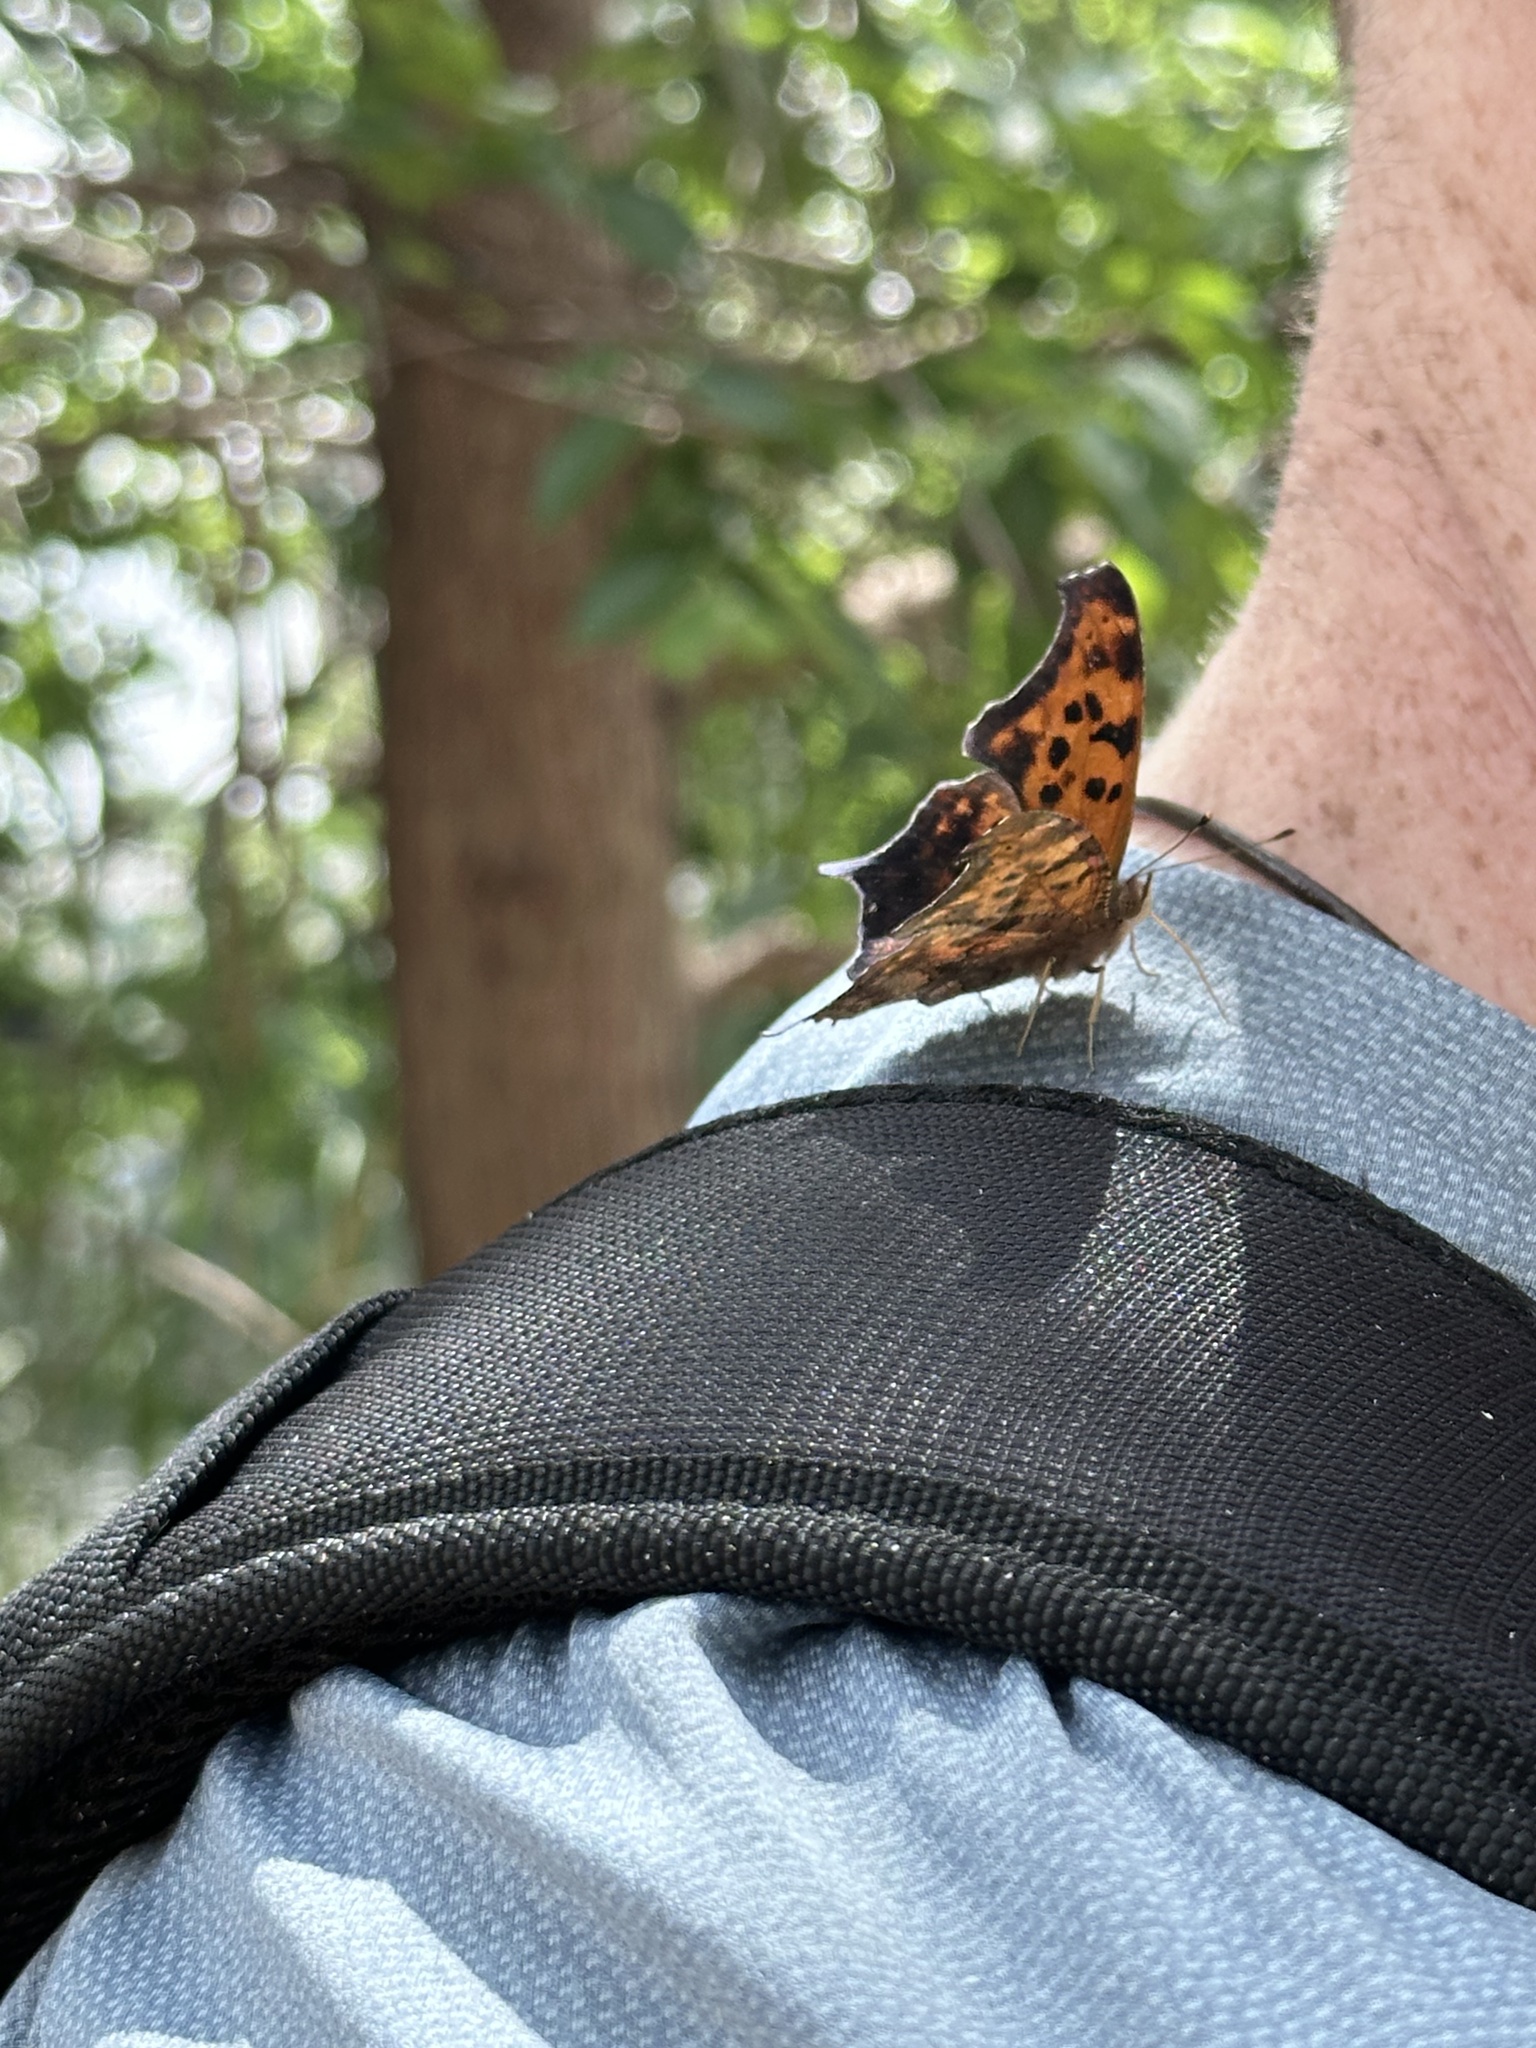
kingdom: Animalia
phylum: Arthropoda
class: Insecta
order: Lepidoptera
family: Nymphalidae
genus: Polygonia
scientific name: Polygonia interrogationis
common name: Question mark
